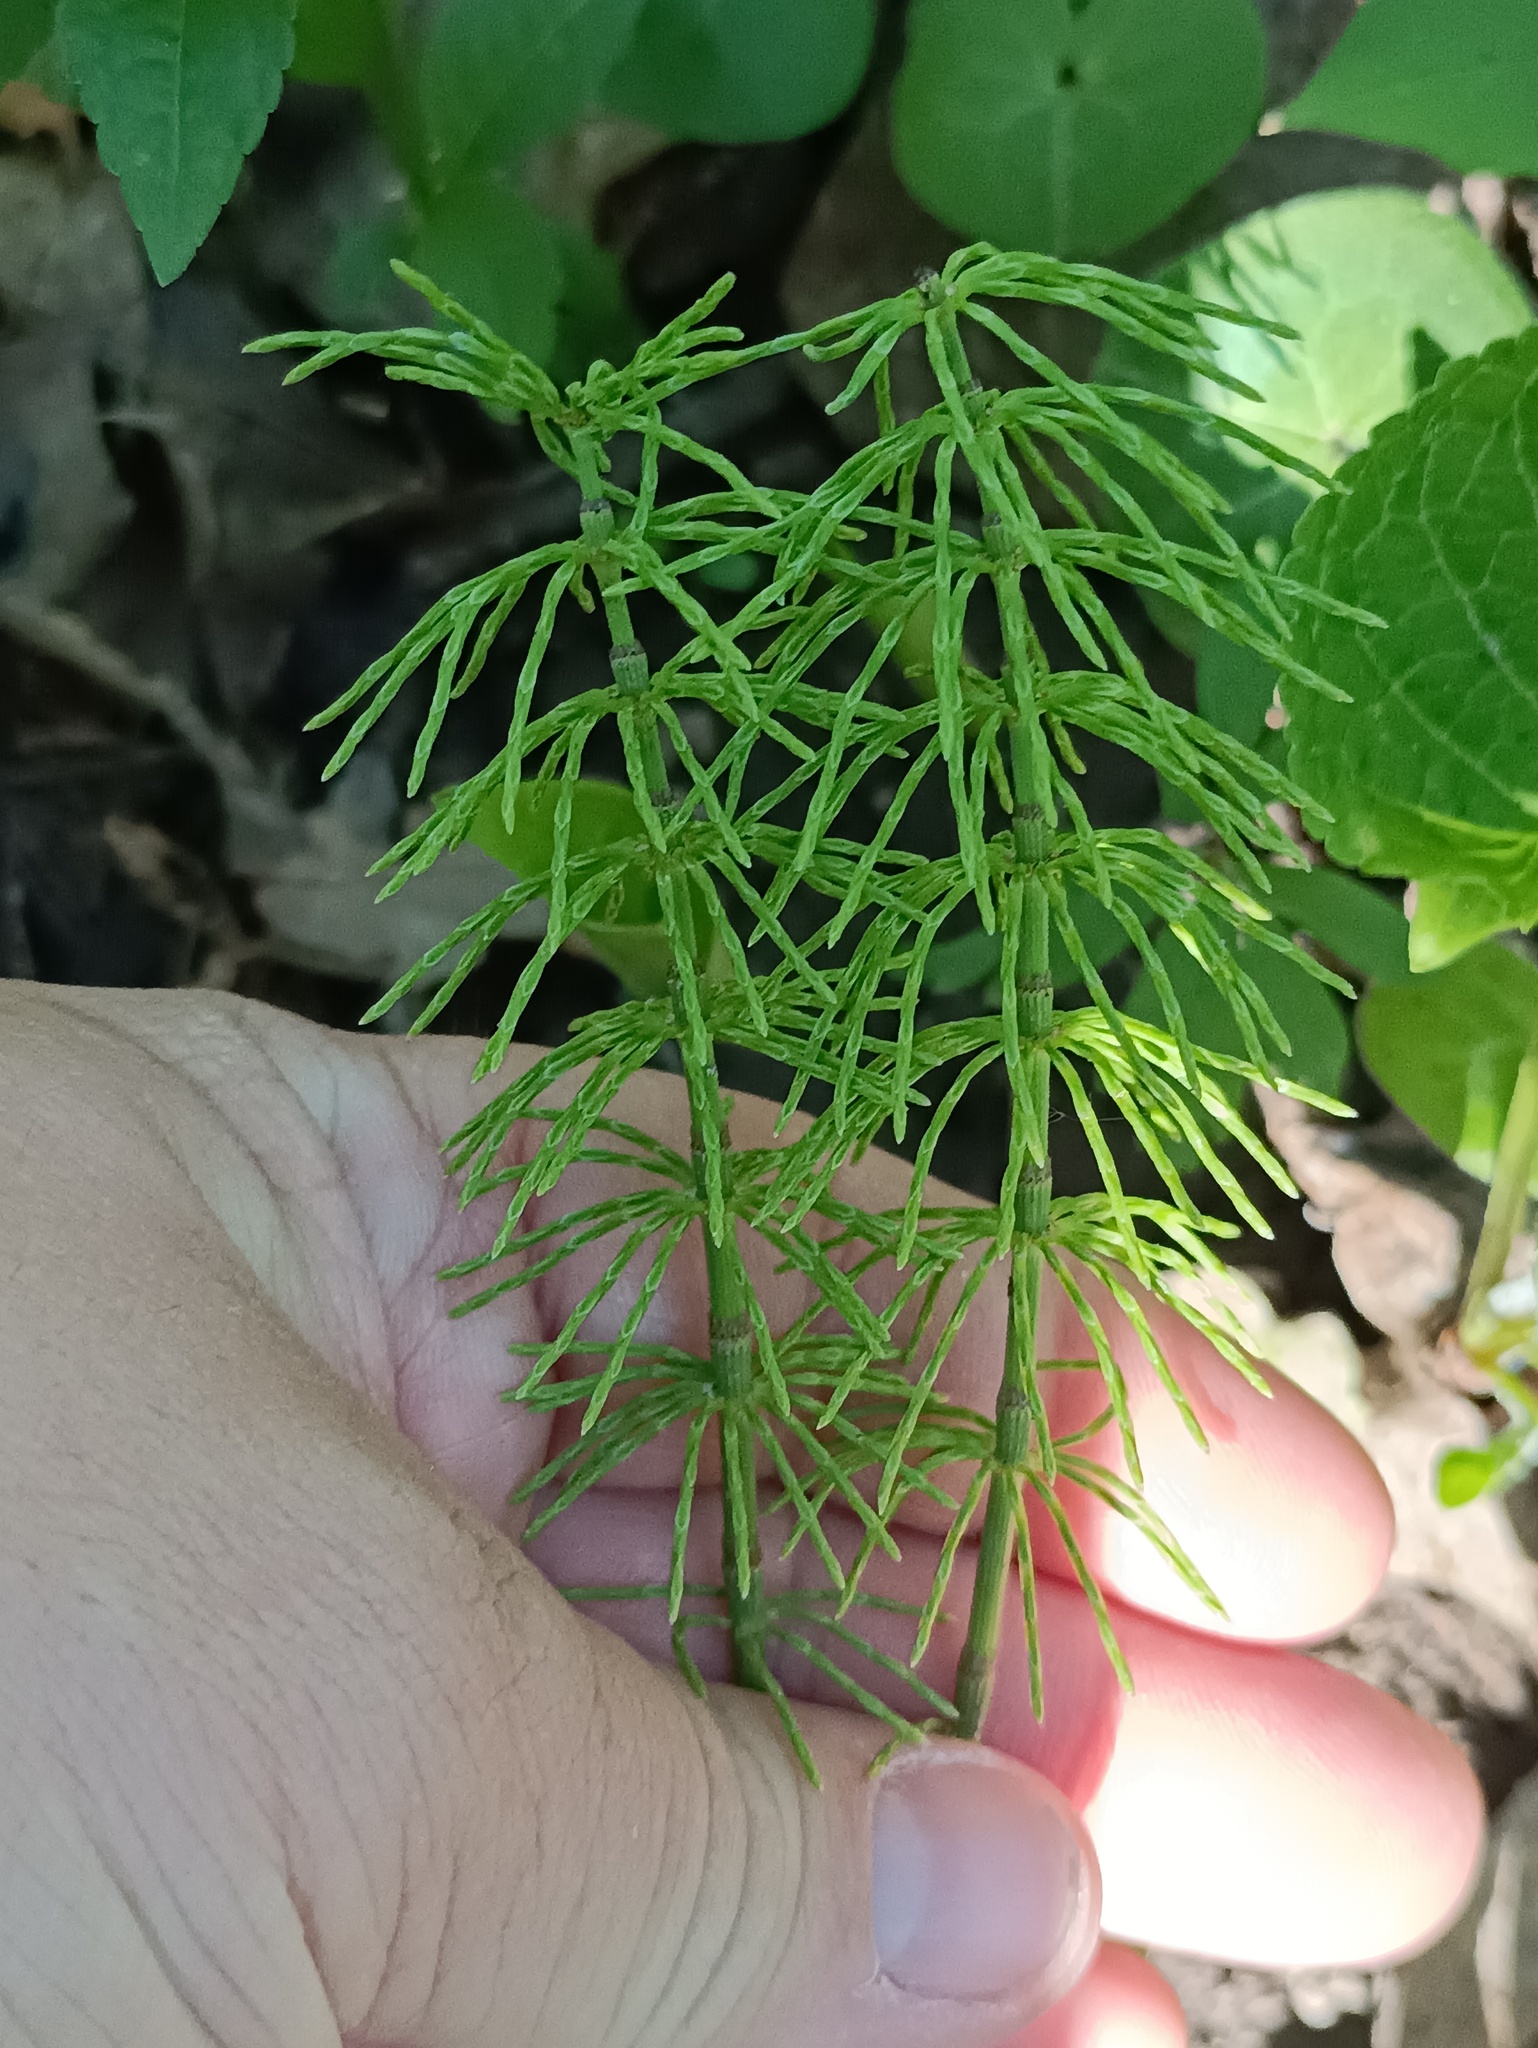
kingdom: Plantae
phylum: Tracheophyta
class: Polypodiopsida
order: Equisetales
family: Equisetaceae
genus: Equisetum
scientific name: Equisetum pratense
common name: Meadow horsetail
